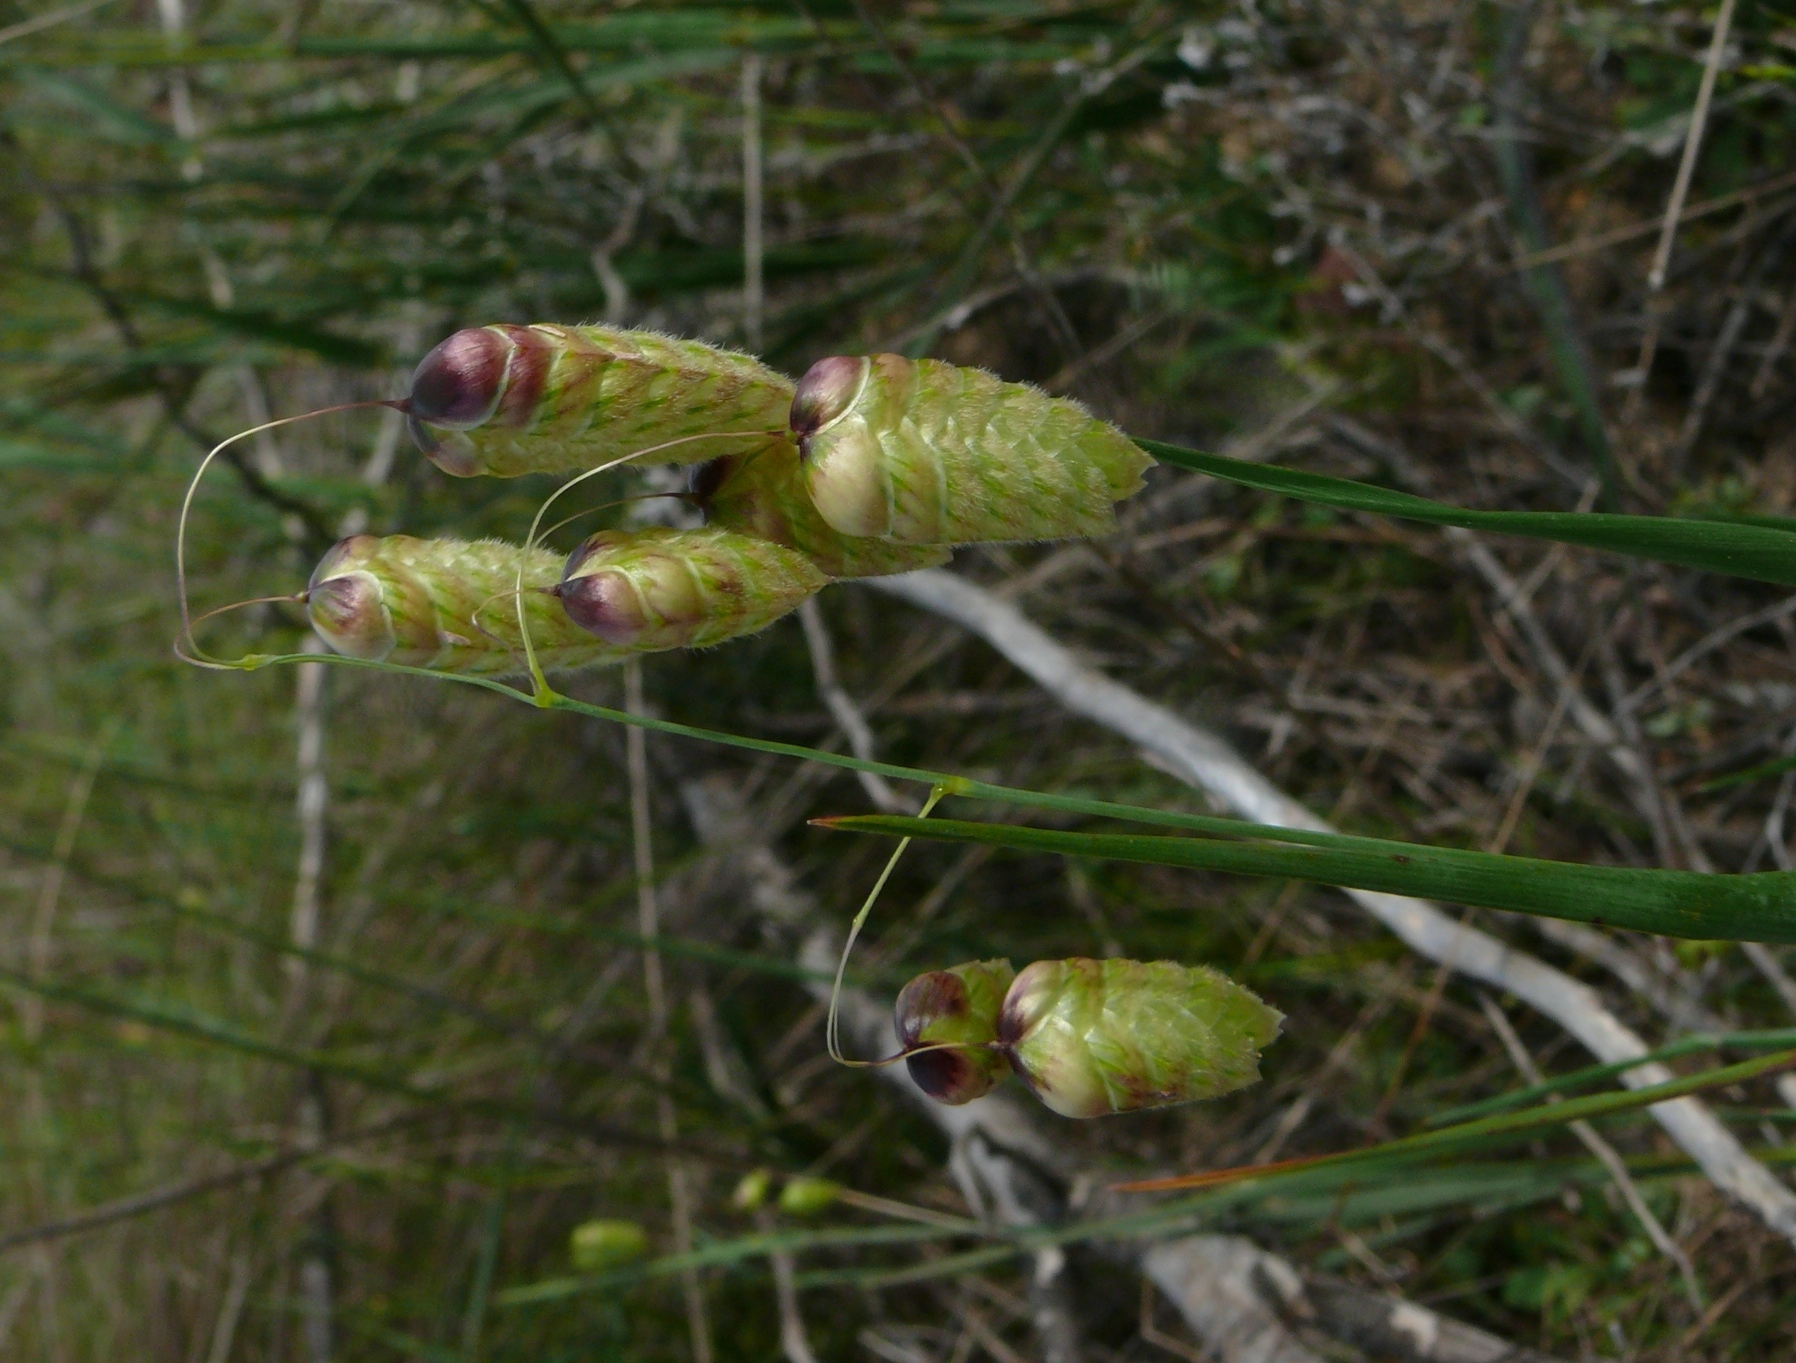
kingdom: Plantae
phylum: Tracheophyta
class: Liliopsida
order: Poales
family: Poaceae
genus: Briza
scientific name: Briza maxima
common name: Big quakinggrass
